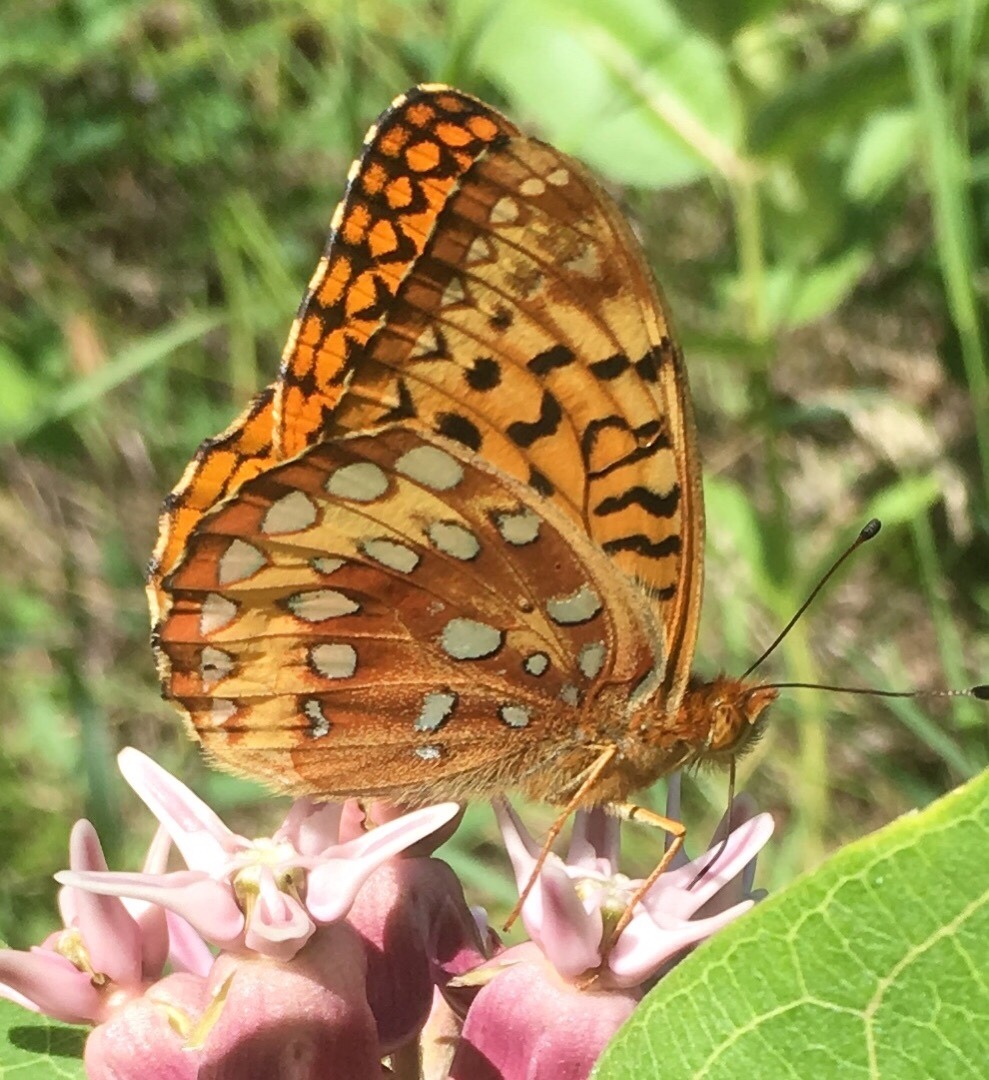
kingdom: Animalia
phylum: Arthropoda
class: Insecta
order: Lepidoptera
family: Nymphalidae
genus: Speyeria
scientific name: Speyeria cybele
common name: Great spangled fritillary
